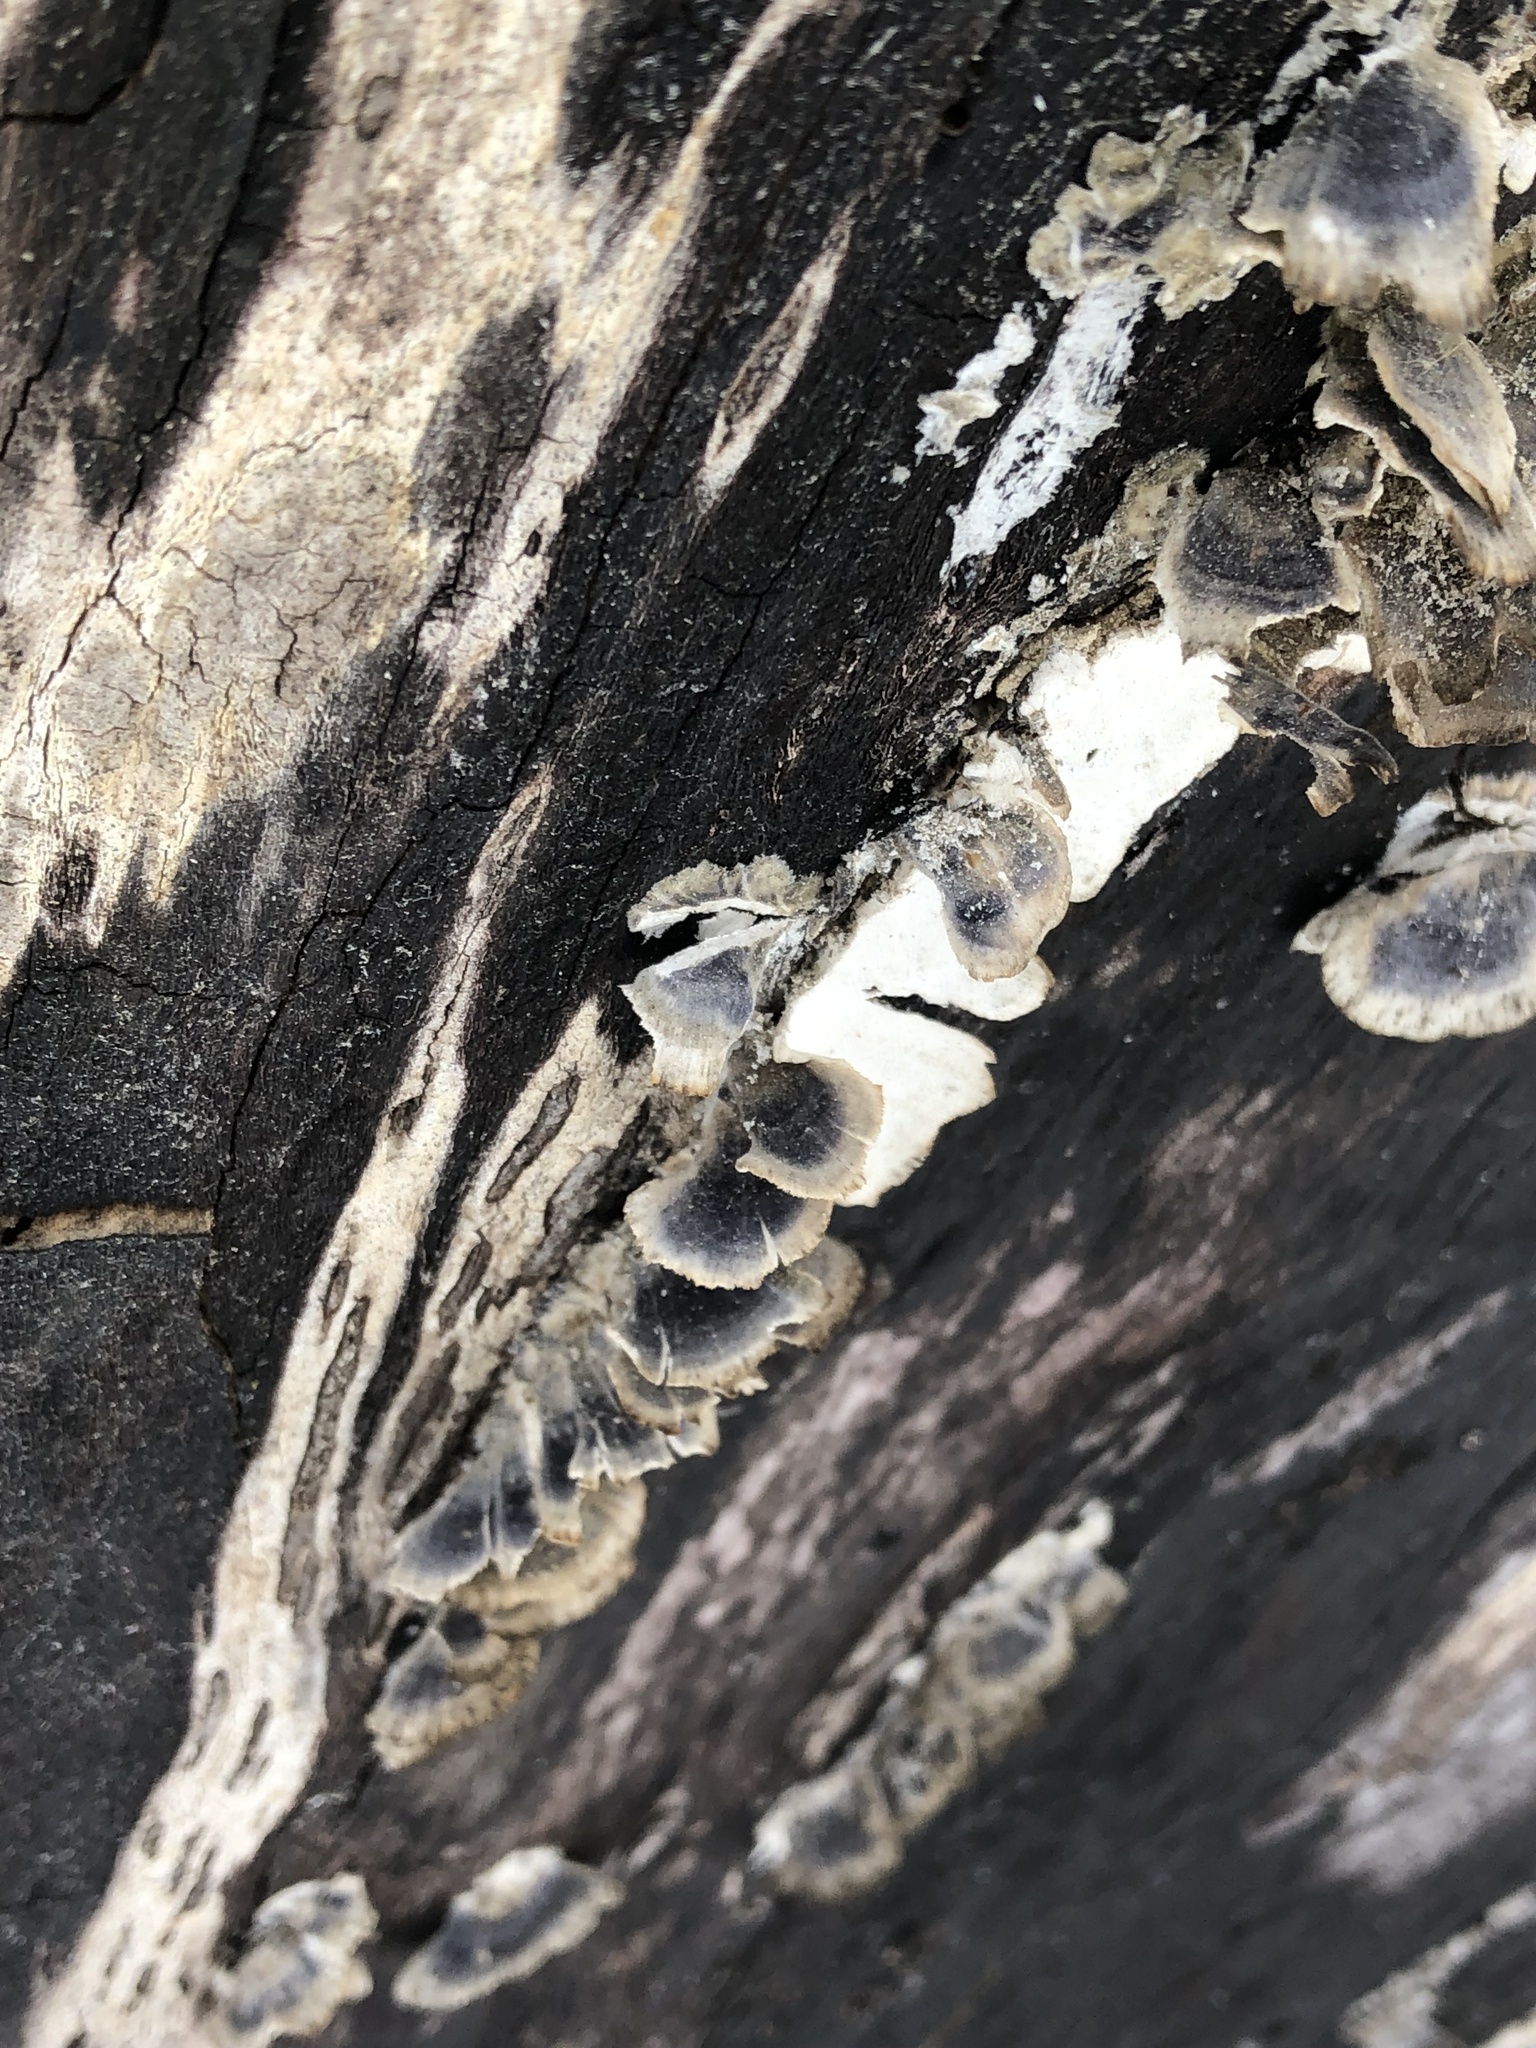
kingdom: Fungi
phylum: Basidiomycota
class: Agaricomycetes
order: Polyporales
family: Polyporaceae
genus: Trametes
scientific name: Trametes versicolor
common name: Turkeytail
